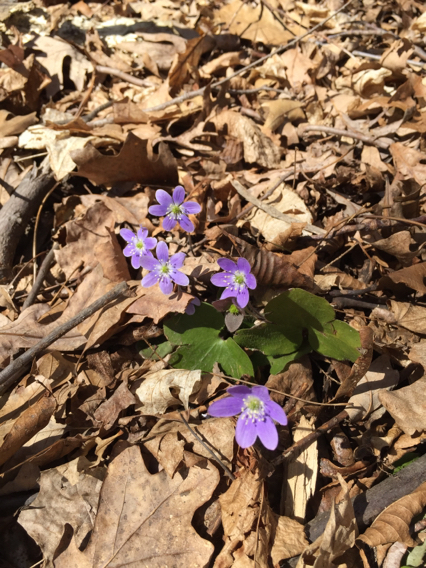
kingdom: Plantae
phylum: Tracheophyta
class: Magnoliopsida
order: Ranunculales
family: Ranunculaceae
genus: Hepatica
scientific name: Hepatica americana
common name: American hepatica
